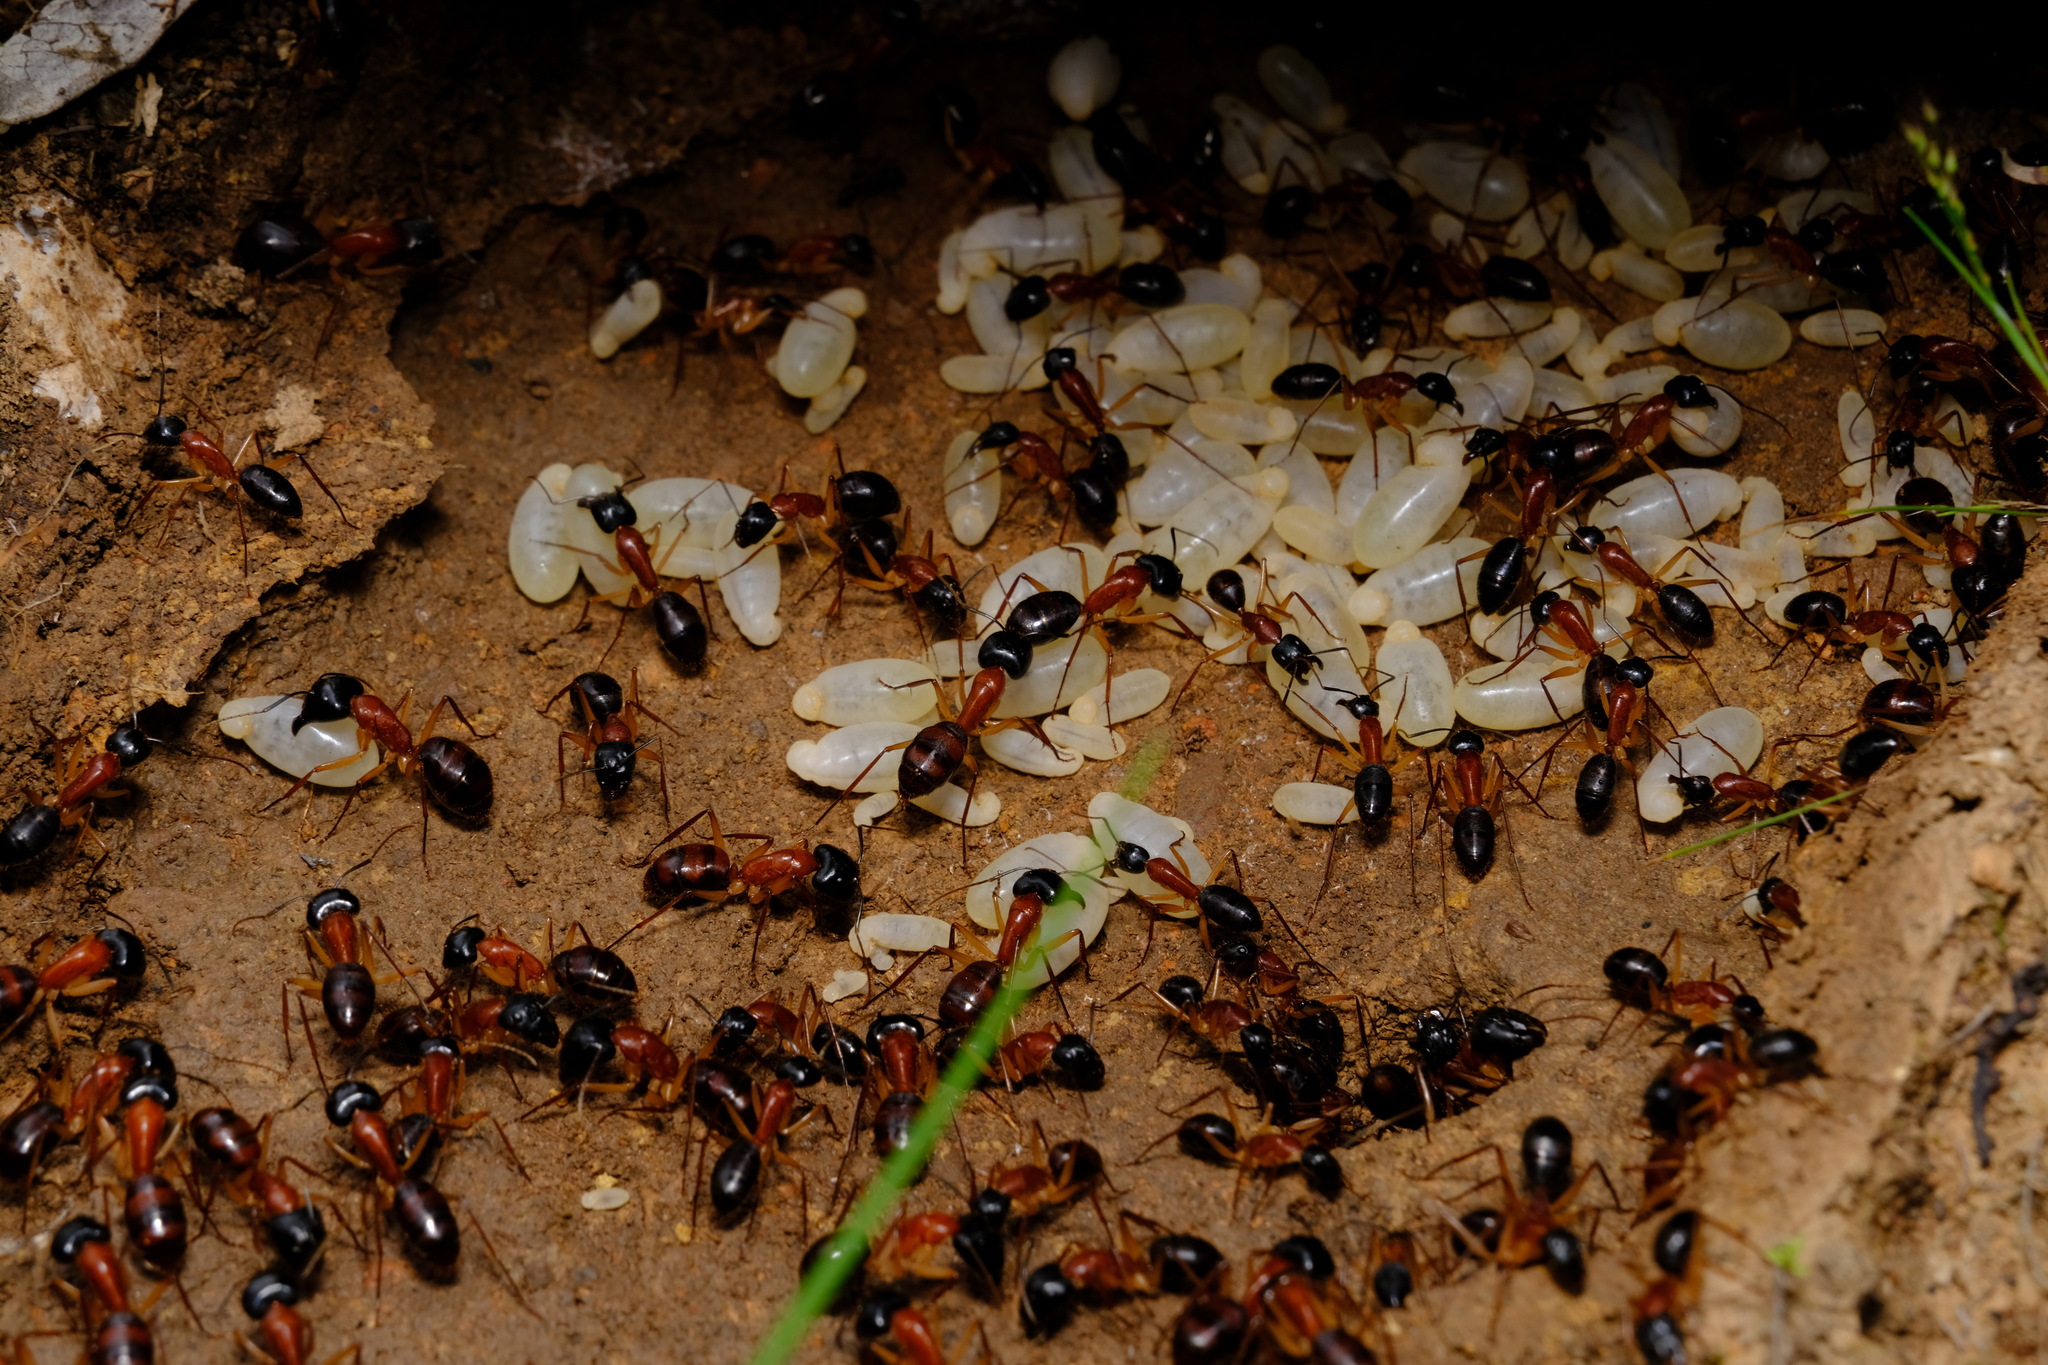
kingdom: Animalia
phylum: Arthropoda
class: Insecta
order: Hymenoptera
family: Formicidae
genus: Camponotus
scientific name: Camponotus nigriceps
